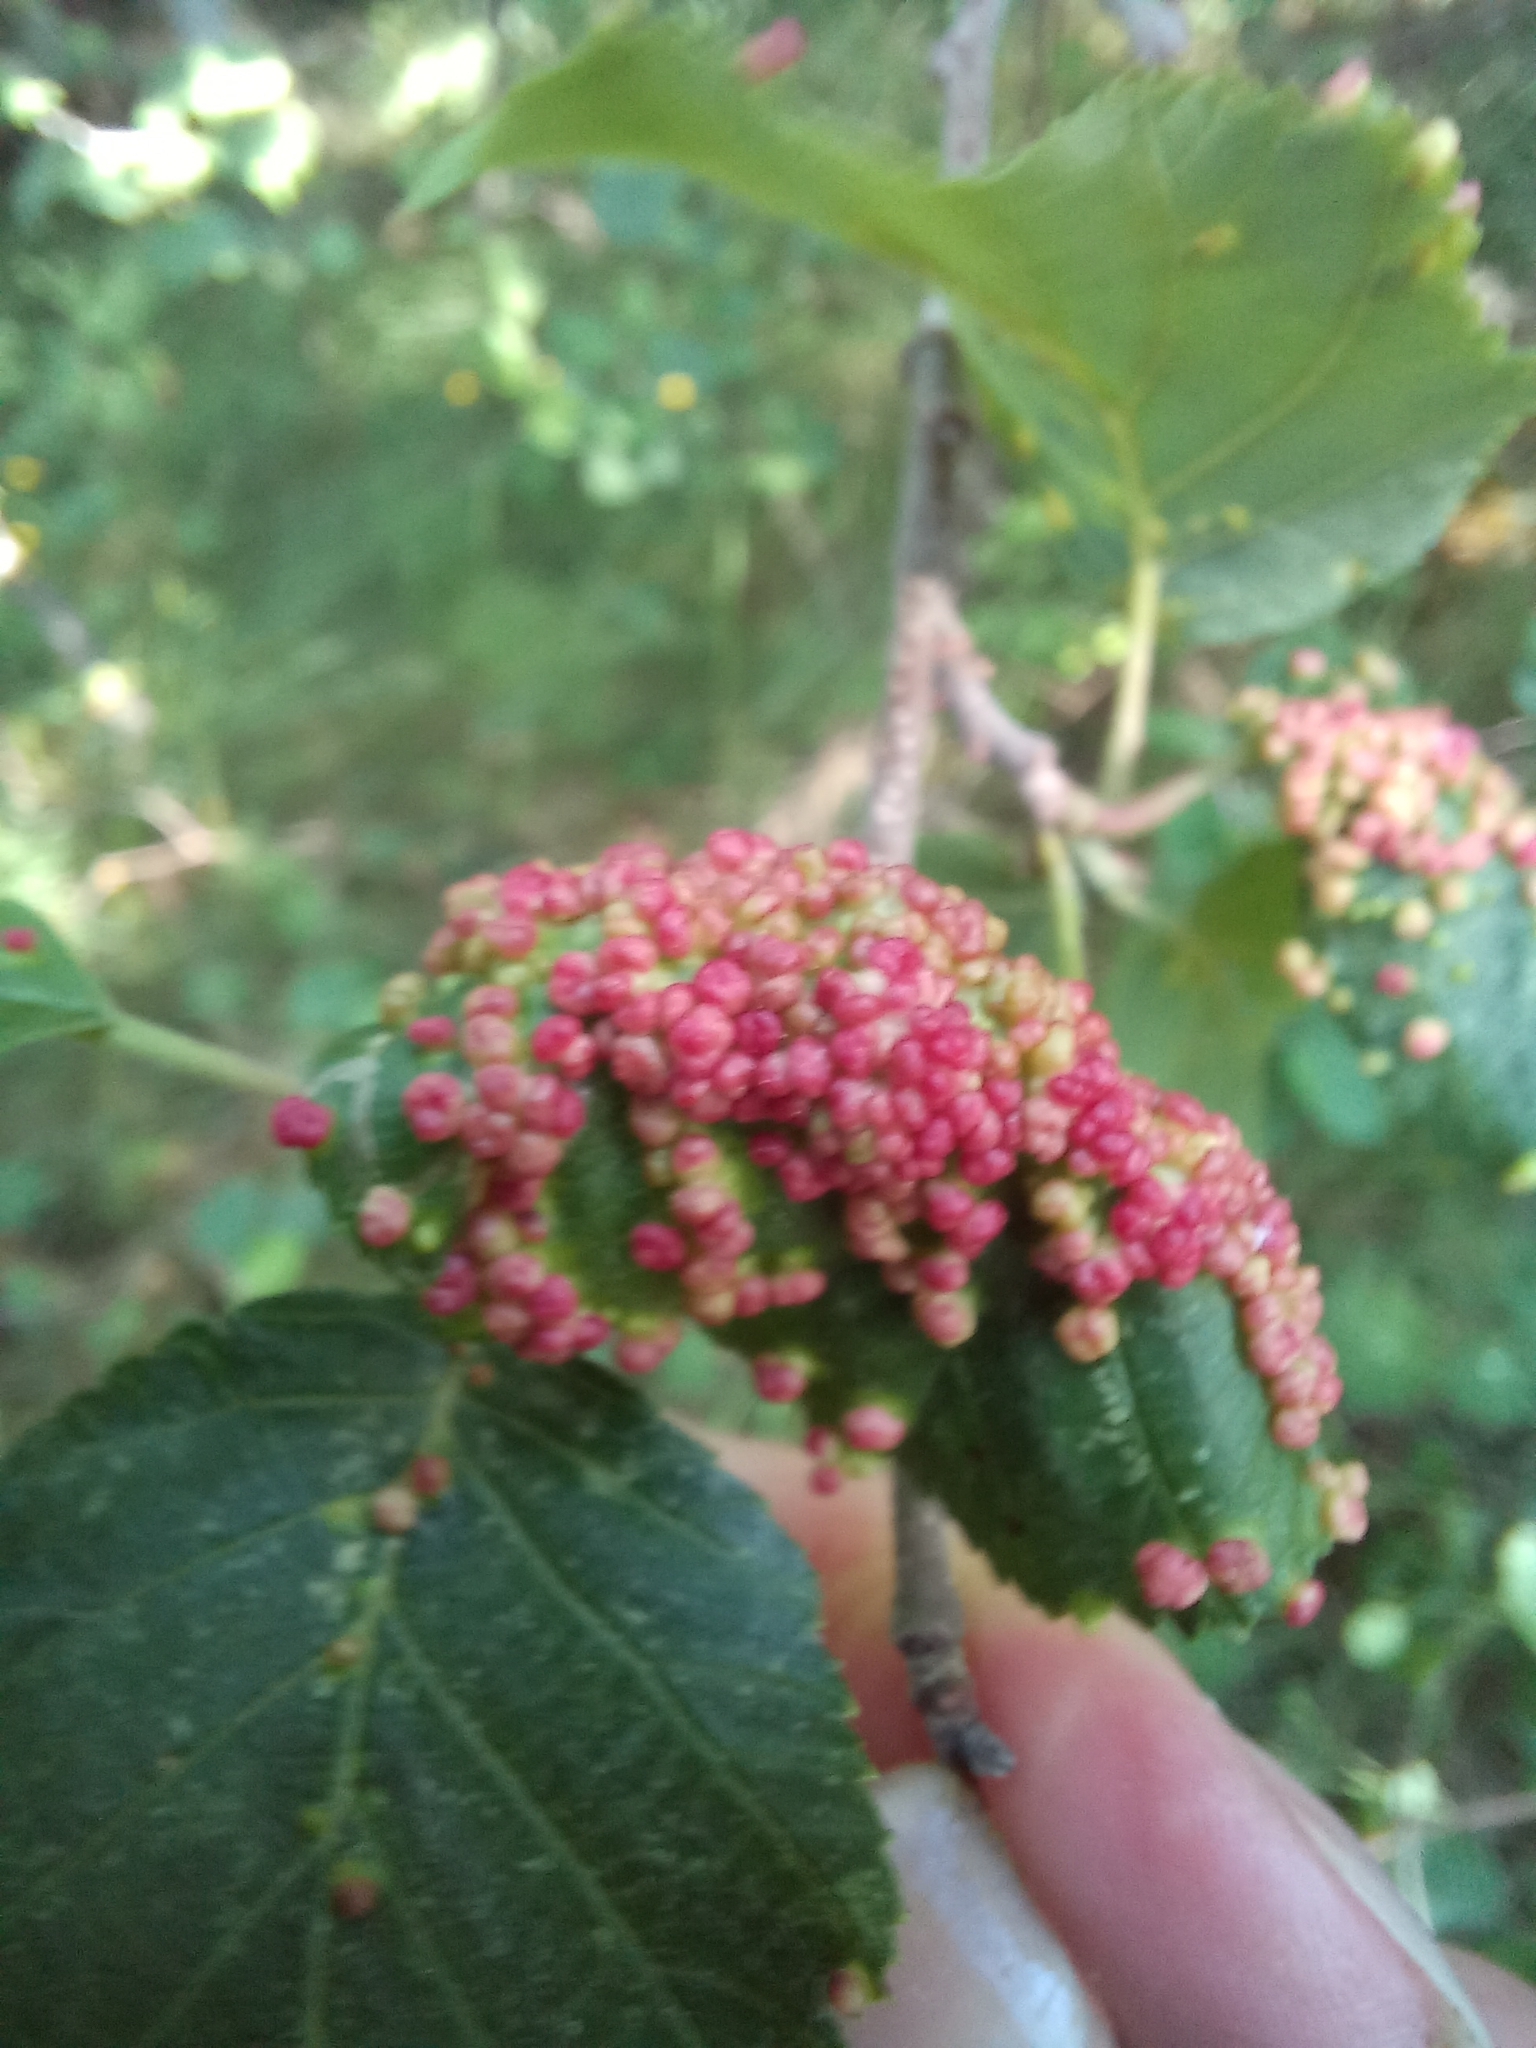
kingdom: Animalia
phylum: Arthropoda
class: Arachnida
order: Trombidiformes
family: Eriophyidae
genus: Eriophyes
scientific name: Eriophyes laevis
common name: Alder leaf gall mite
